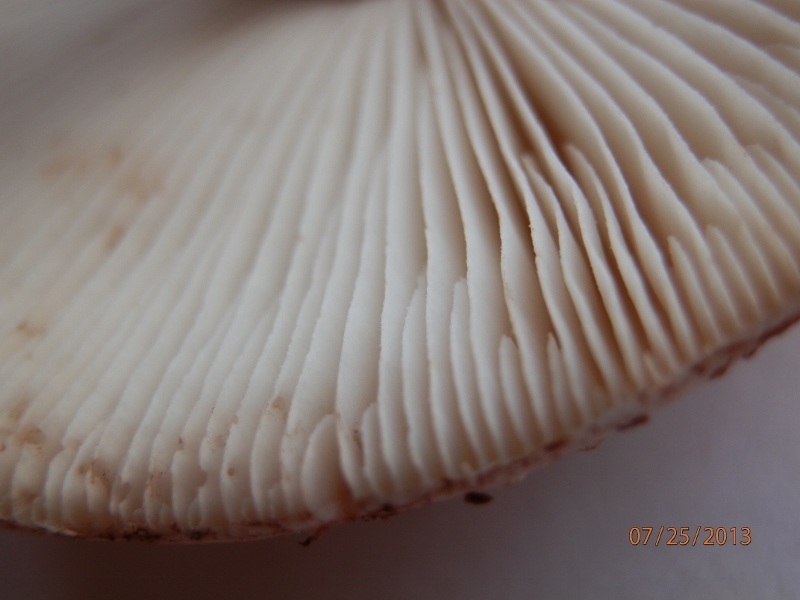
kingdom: Fungi
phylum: Basidiomycota
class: Agaricomycetes
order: Agaricales
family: Amanitaceae
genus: Amanita
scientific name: Amanita rubescens
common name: Blusher
